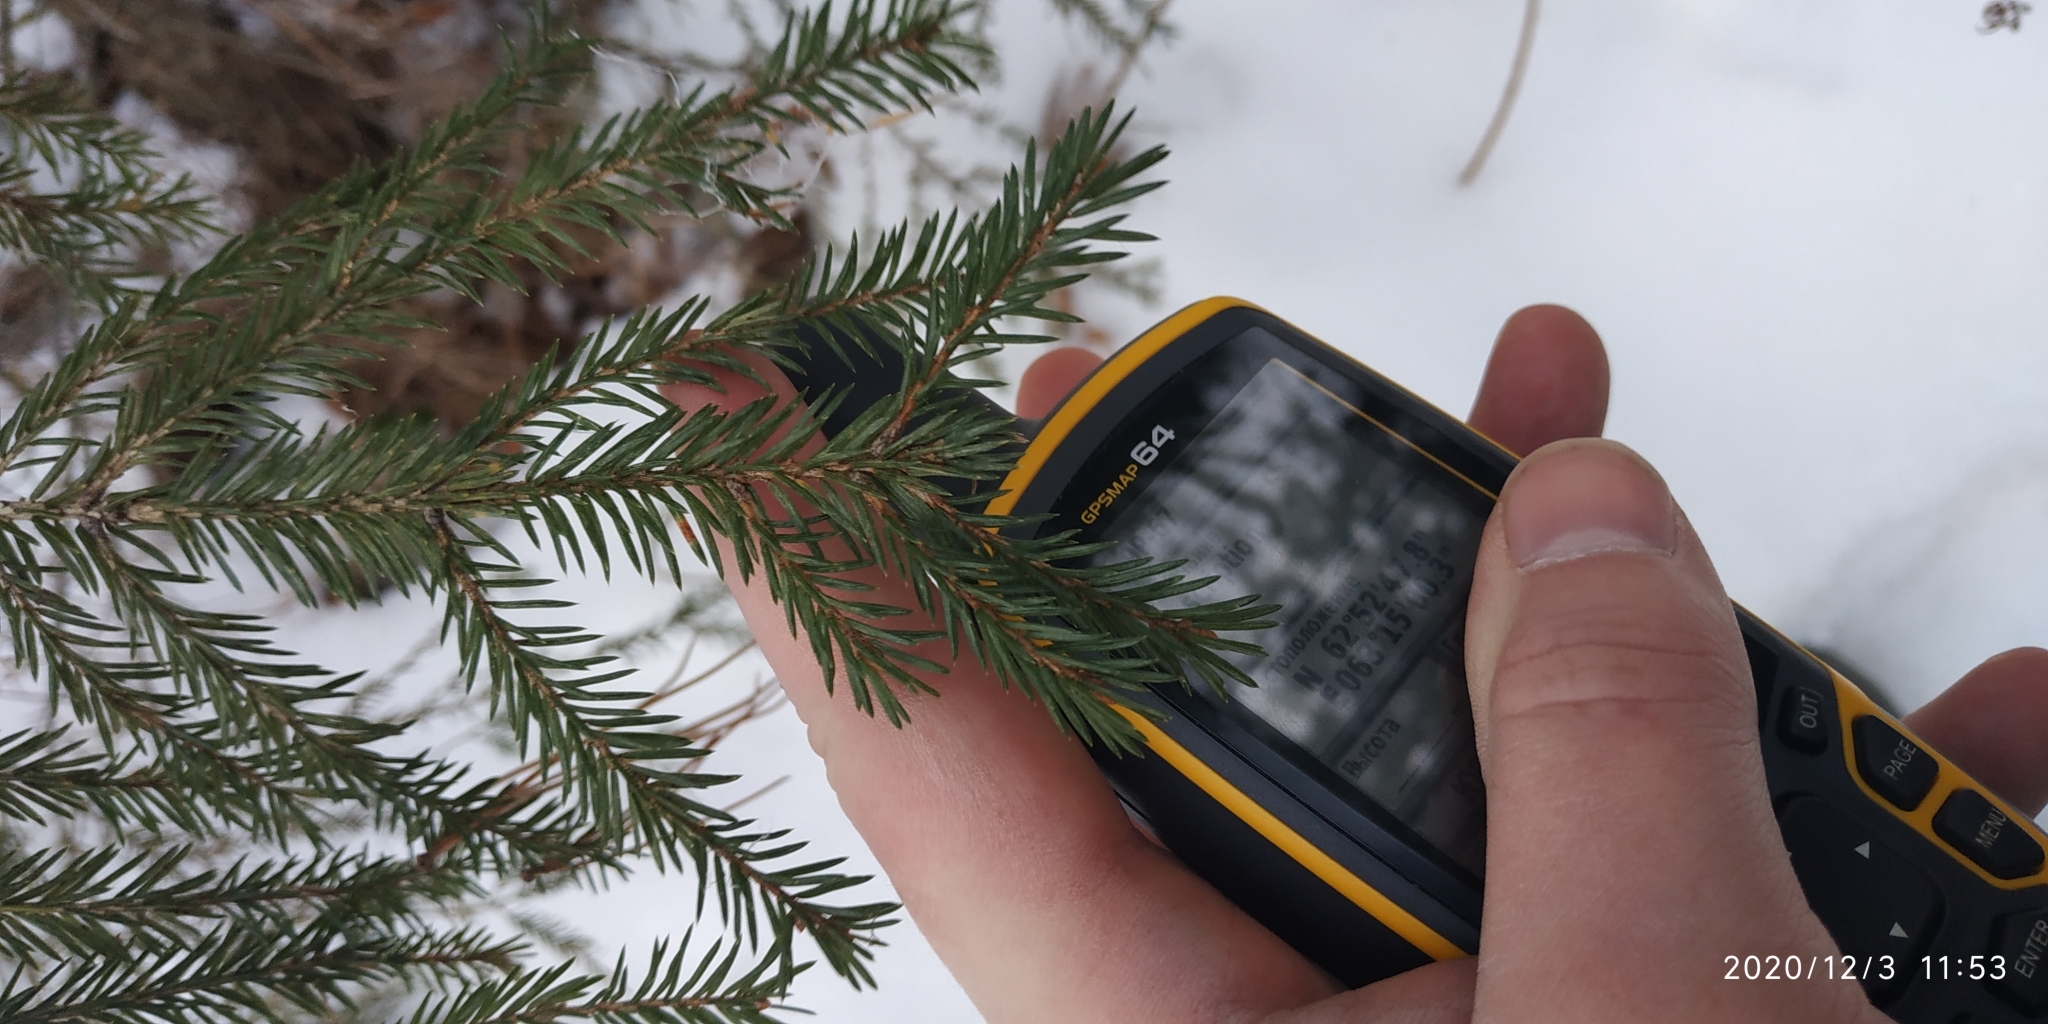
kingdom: Plantae
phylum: Tracheophyta
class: Pinopsida
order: Pinales
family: Pinaceae
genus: Picea
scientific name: Picea obovata
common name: Siberian spruce
